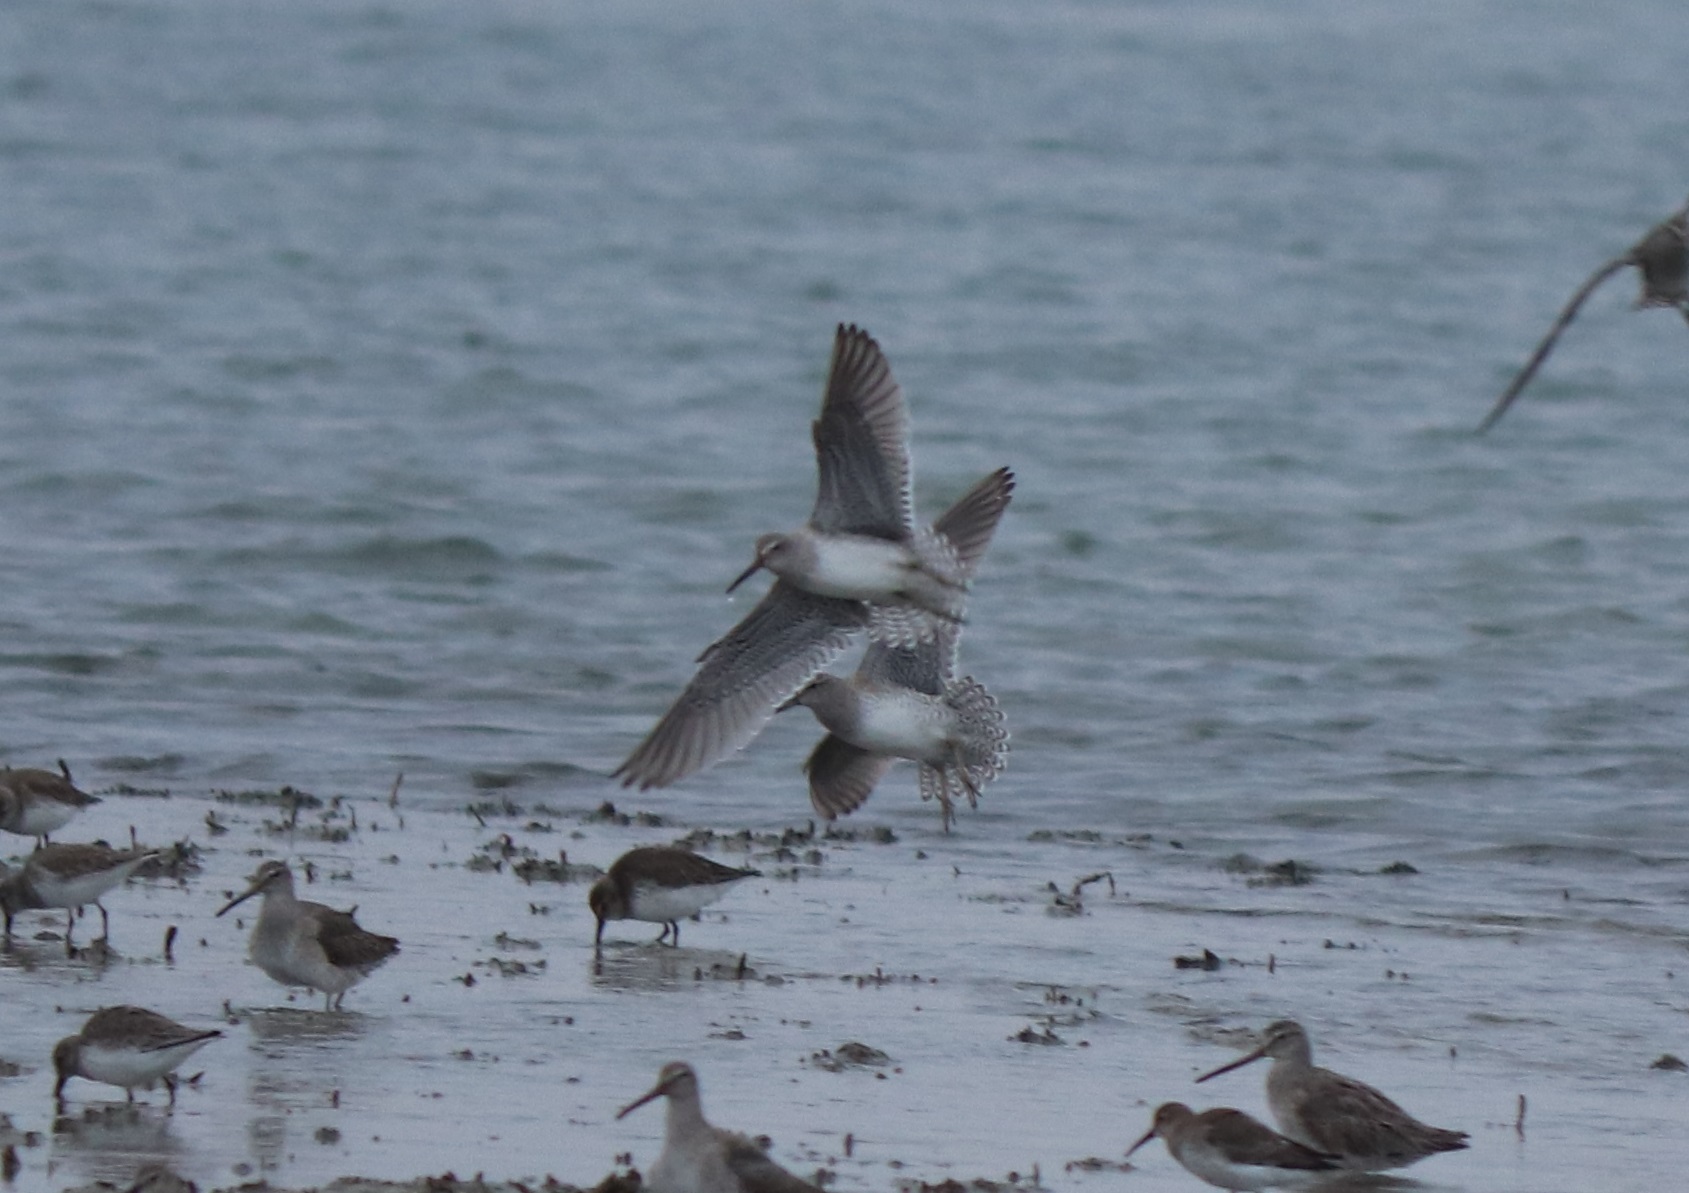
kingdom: Animalia
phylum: Chordata
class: Aves
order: Charadriiformes
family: Scolopacidae
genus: Calidris
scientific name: Calidris alpina
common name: Dunlin
